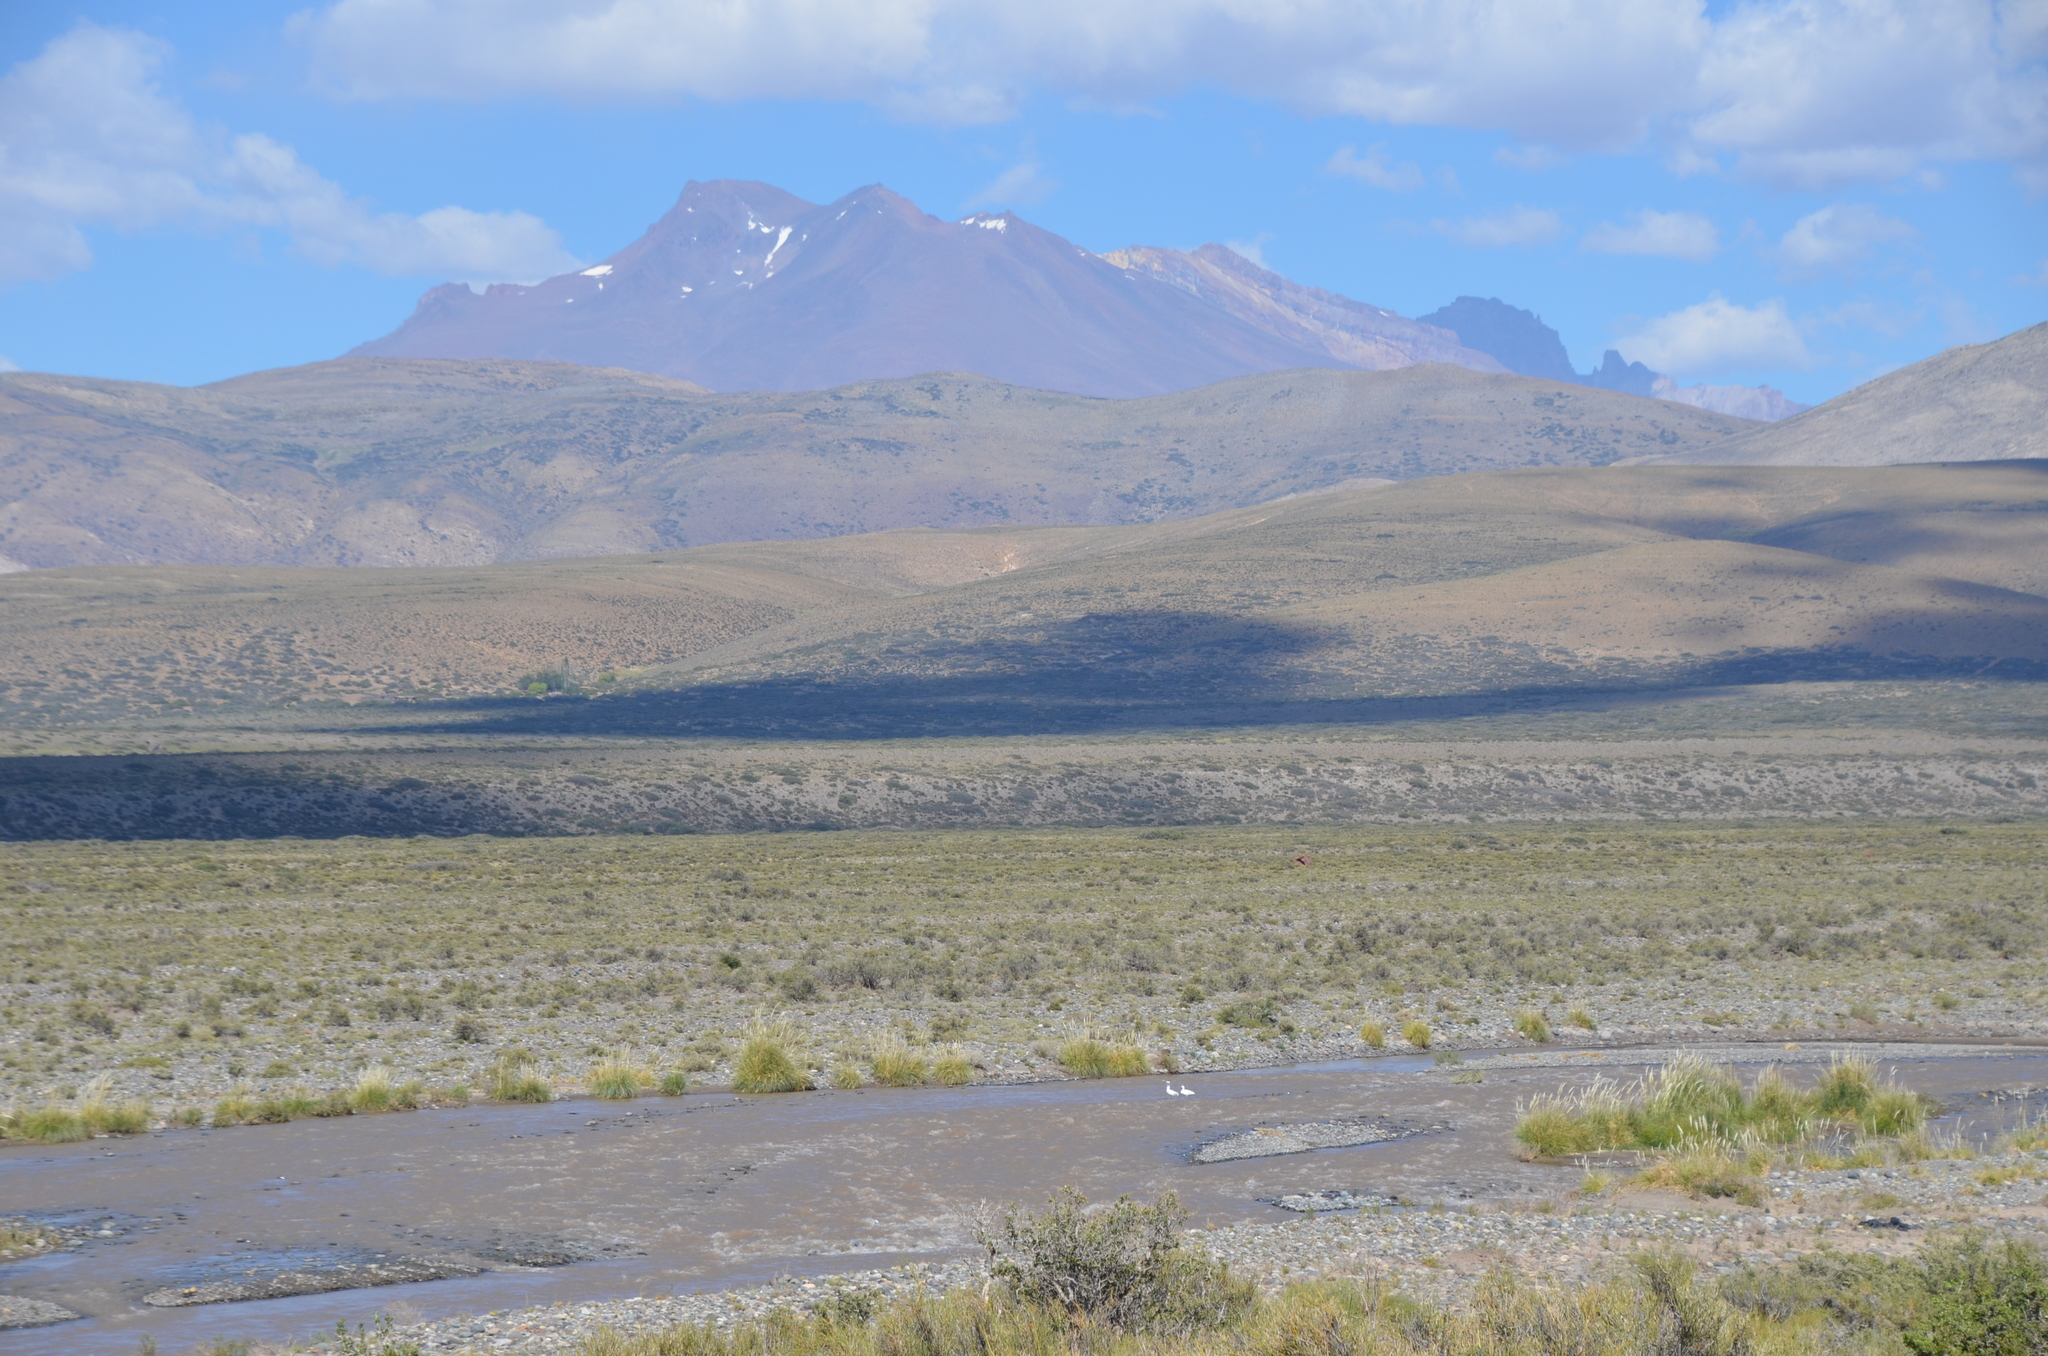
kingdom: Animalia
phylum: Chordata
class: Aves
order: Anseriformes
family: Anatidae
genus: Coscoroba
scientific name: Coscoroba coscoroba
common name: Coscoroba swan
